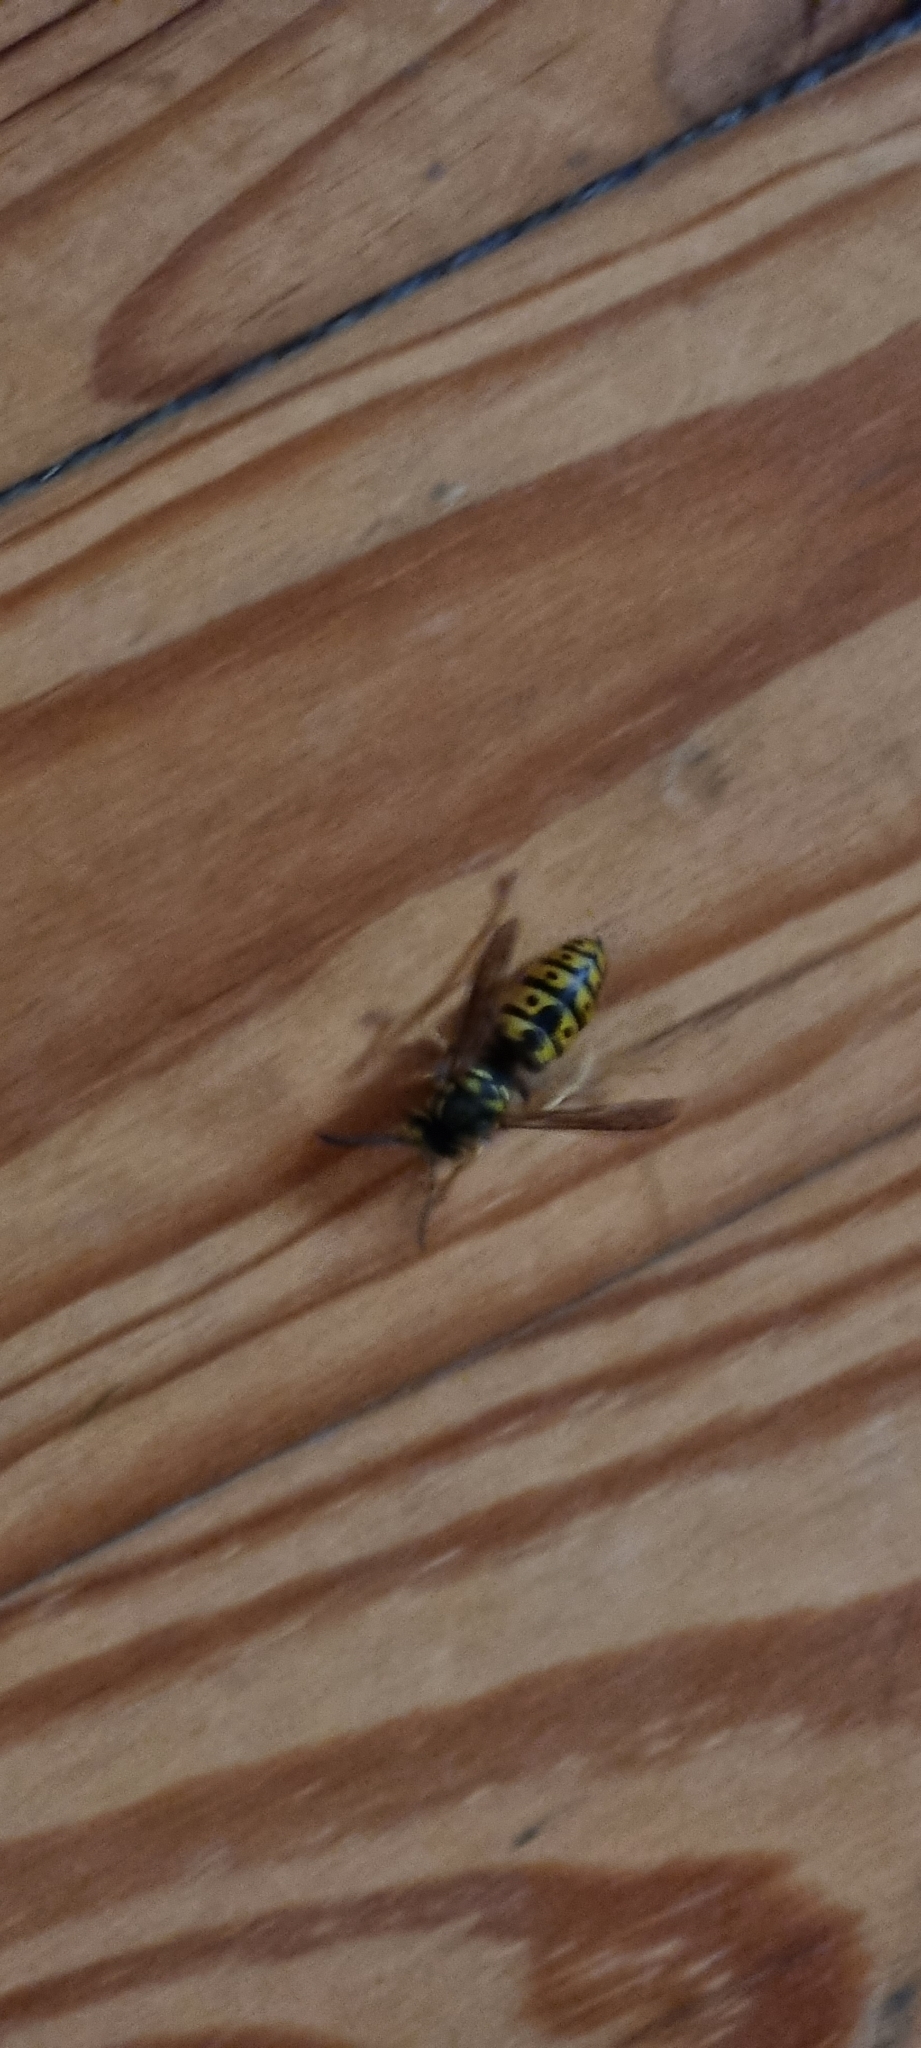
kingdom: Animalia
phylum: Arthropoda
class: Insecta
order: Hymenoptera
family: Vespidae
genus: Vespula
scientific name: Vespula germanica
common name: German wasp
